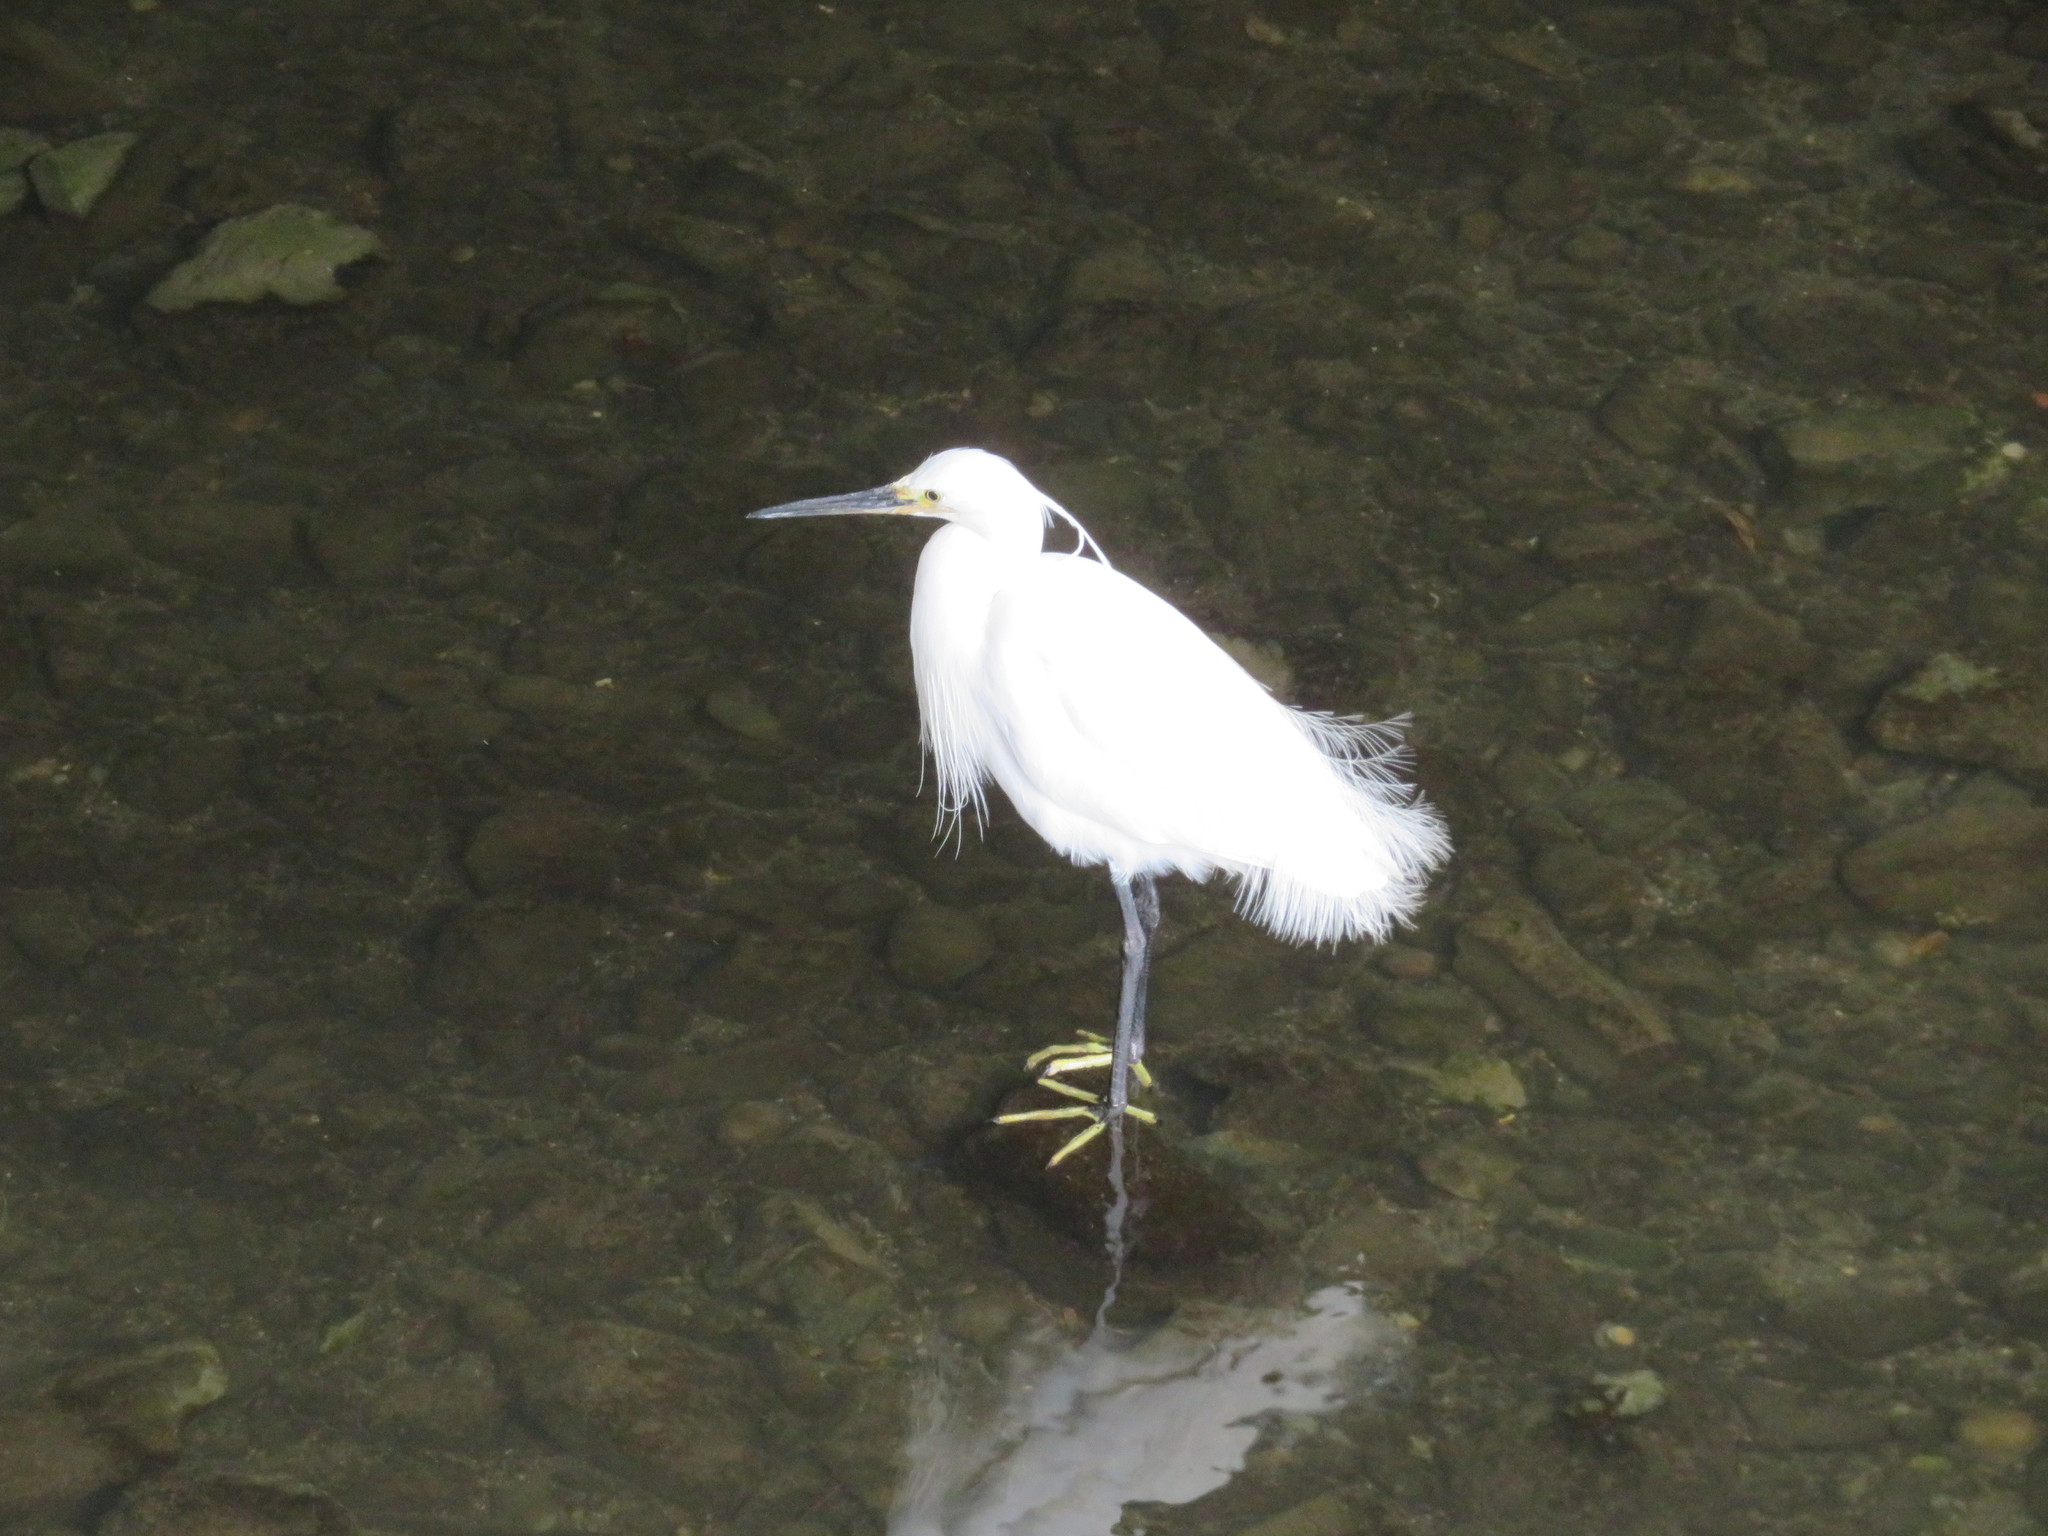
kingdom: Animalia
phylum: Chordata
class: Aves
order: Pelecaniformes
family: Ardeidae
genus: Egretta
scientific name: Egretta garzetta
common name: Little egret
